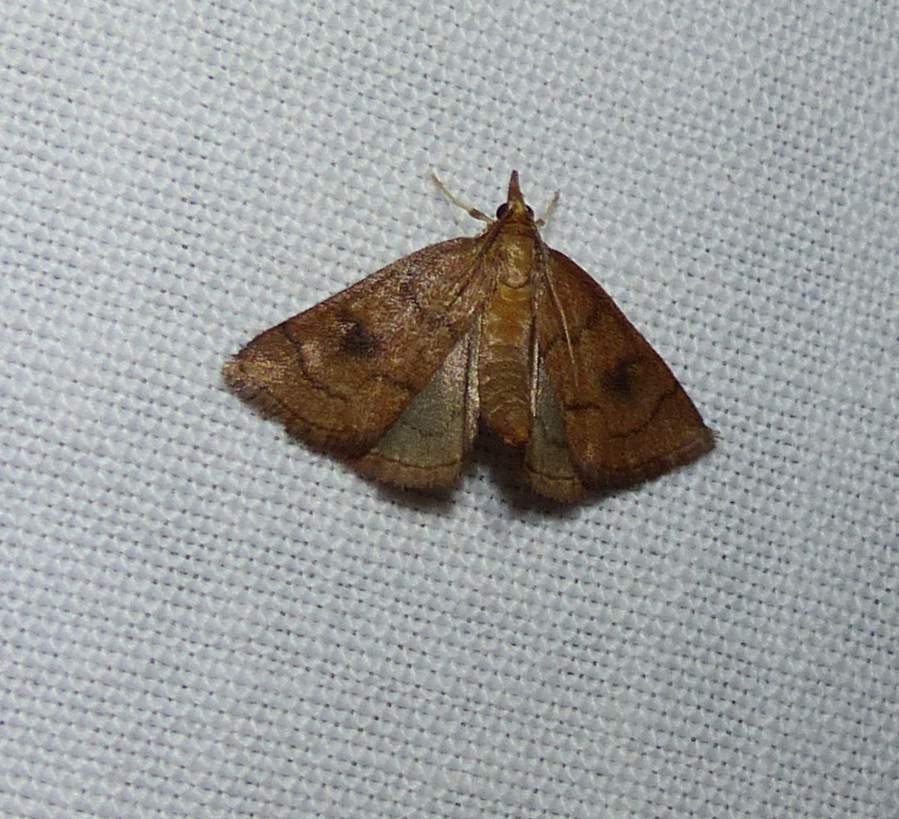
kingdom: Animalia
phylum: Arthropoda
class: Insecta
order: Lepidoptera
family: Crambidae
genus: Fumibotys
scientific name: Fumibotys fumalis
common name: Mint root borer moth
